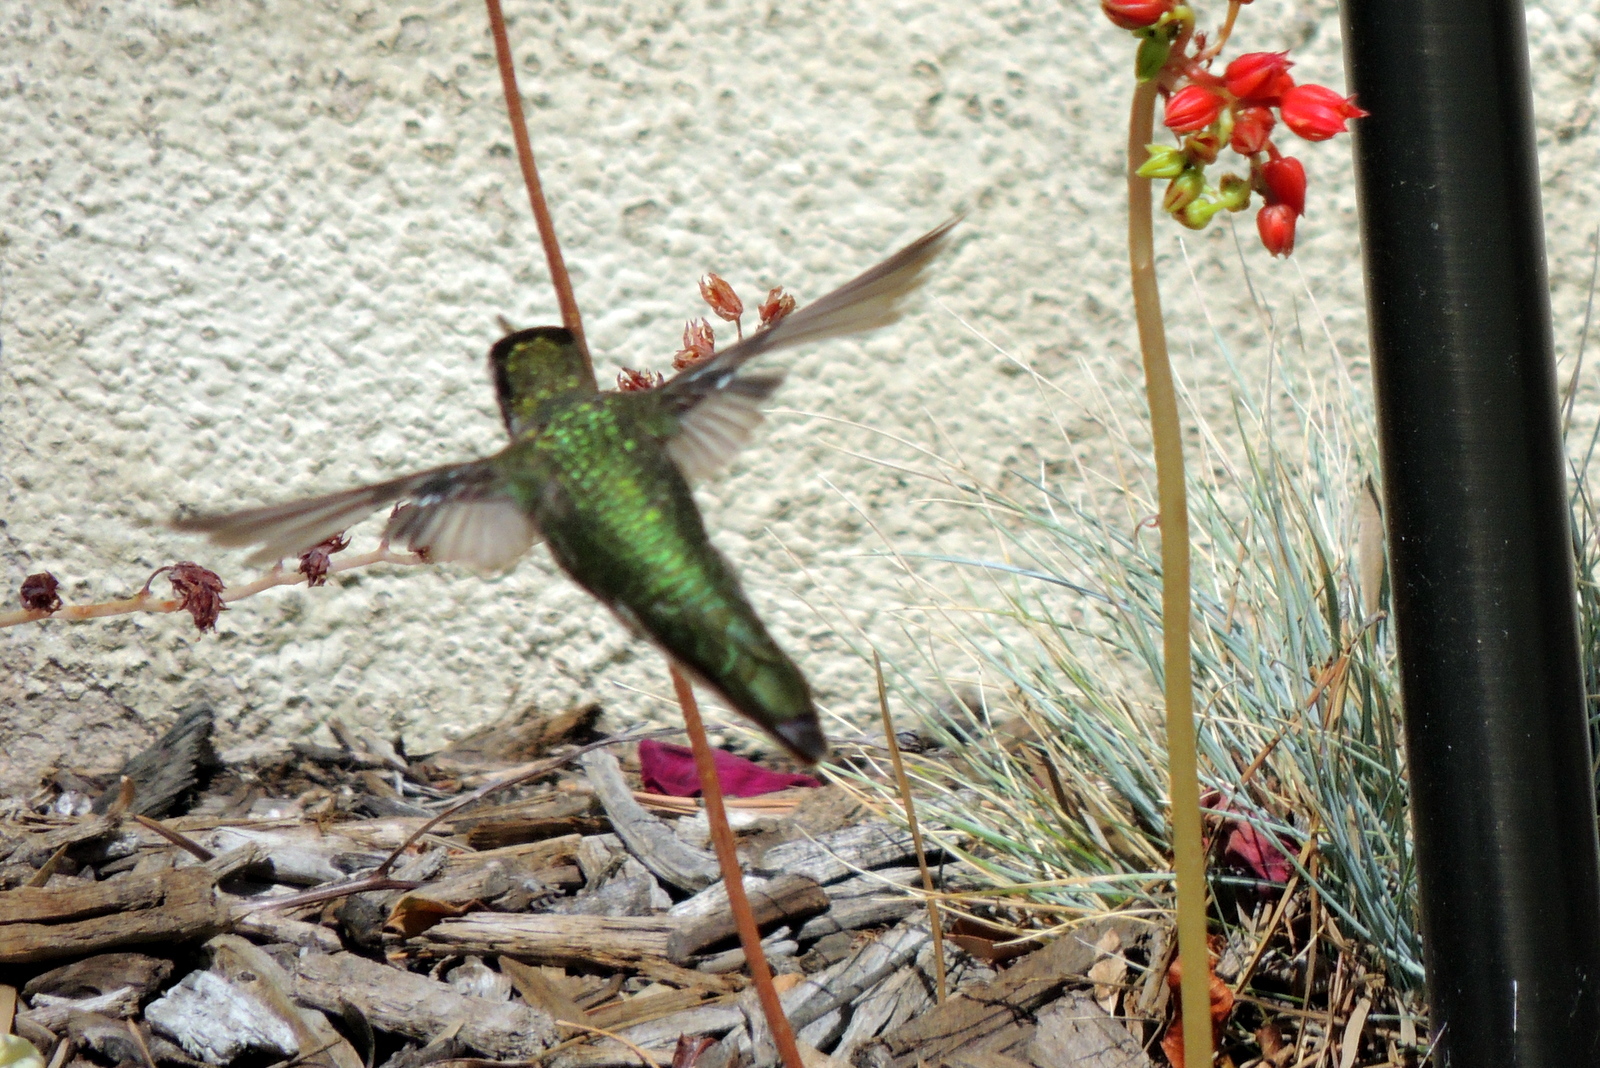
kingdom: Animalia
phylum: Chordata
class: Aves
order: Apodiformes
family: Trochilidae
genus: Calypte
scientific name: Calypte anna
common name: Anna's hummingbird
